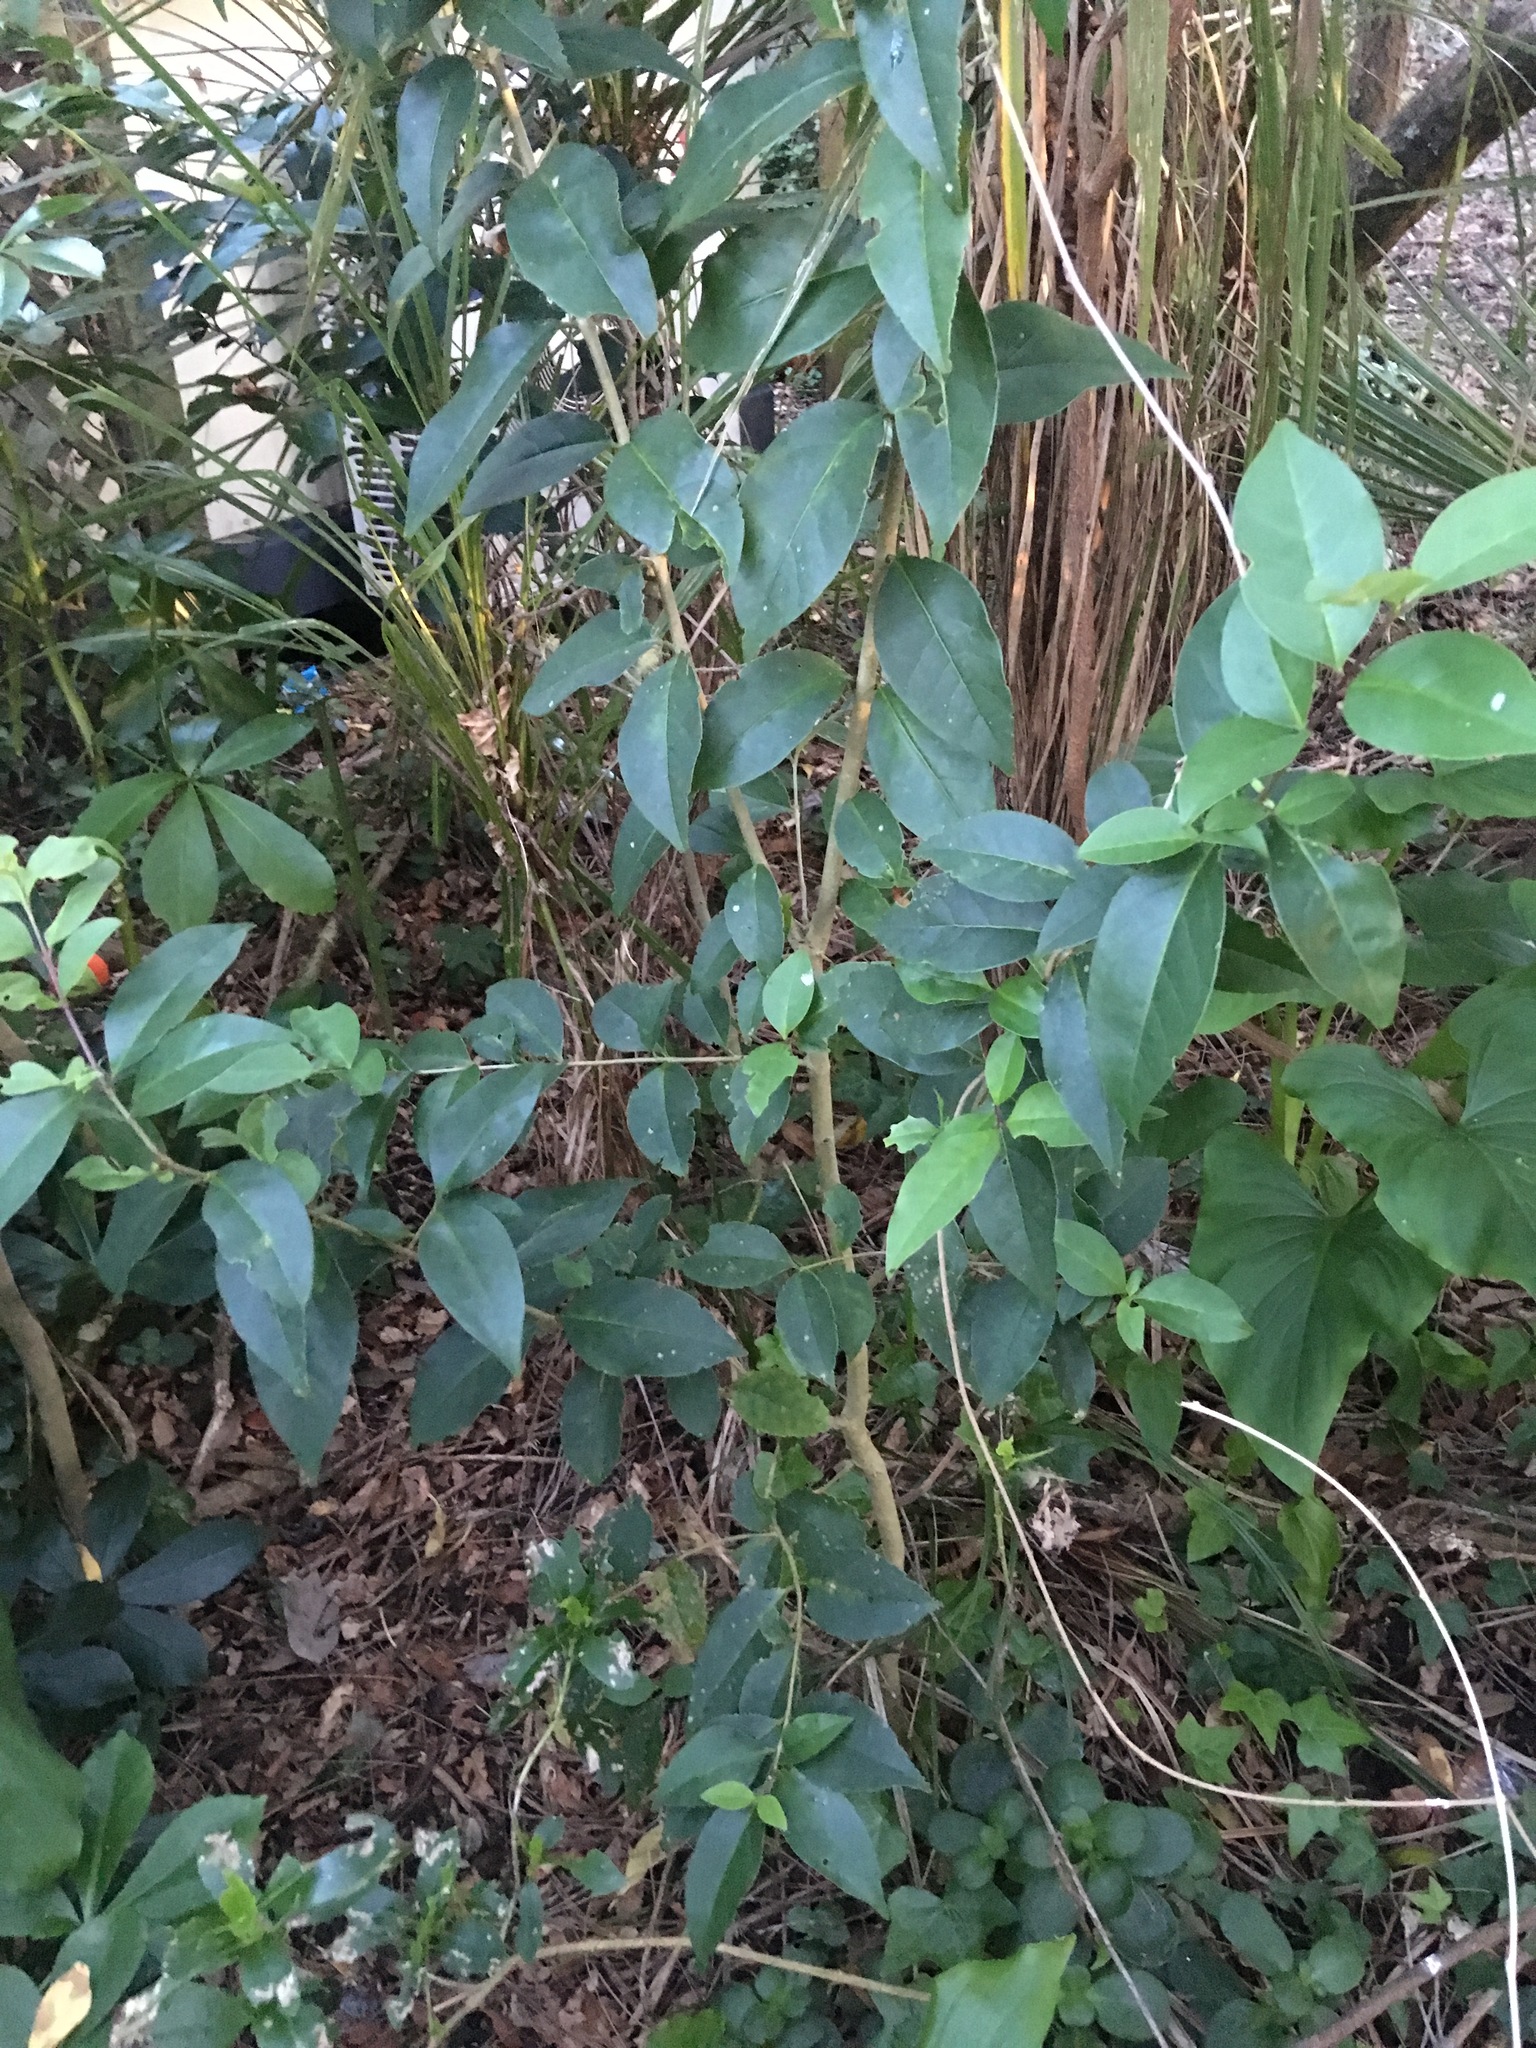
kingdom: Plantae
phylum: Tracheophyta
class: Magnoliopsida
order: Lamiales
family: Oleaceae
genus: Ligustrum
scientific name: Ligustrum lucidum
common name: Glossy privet
